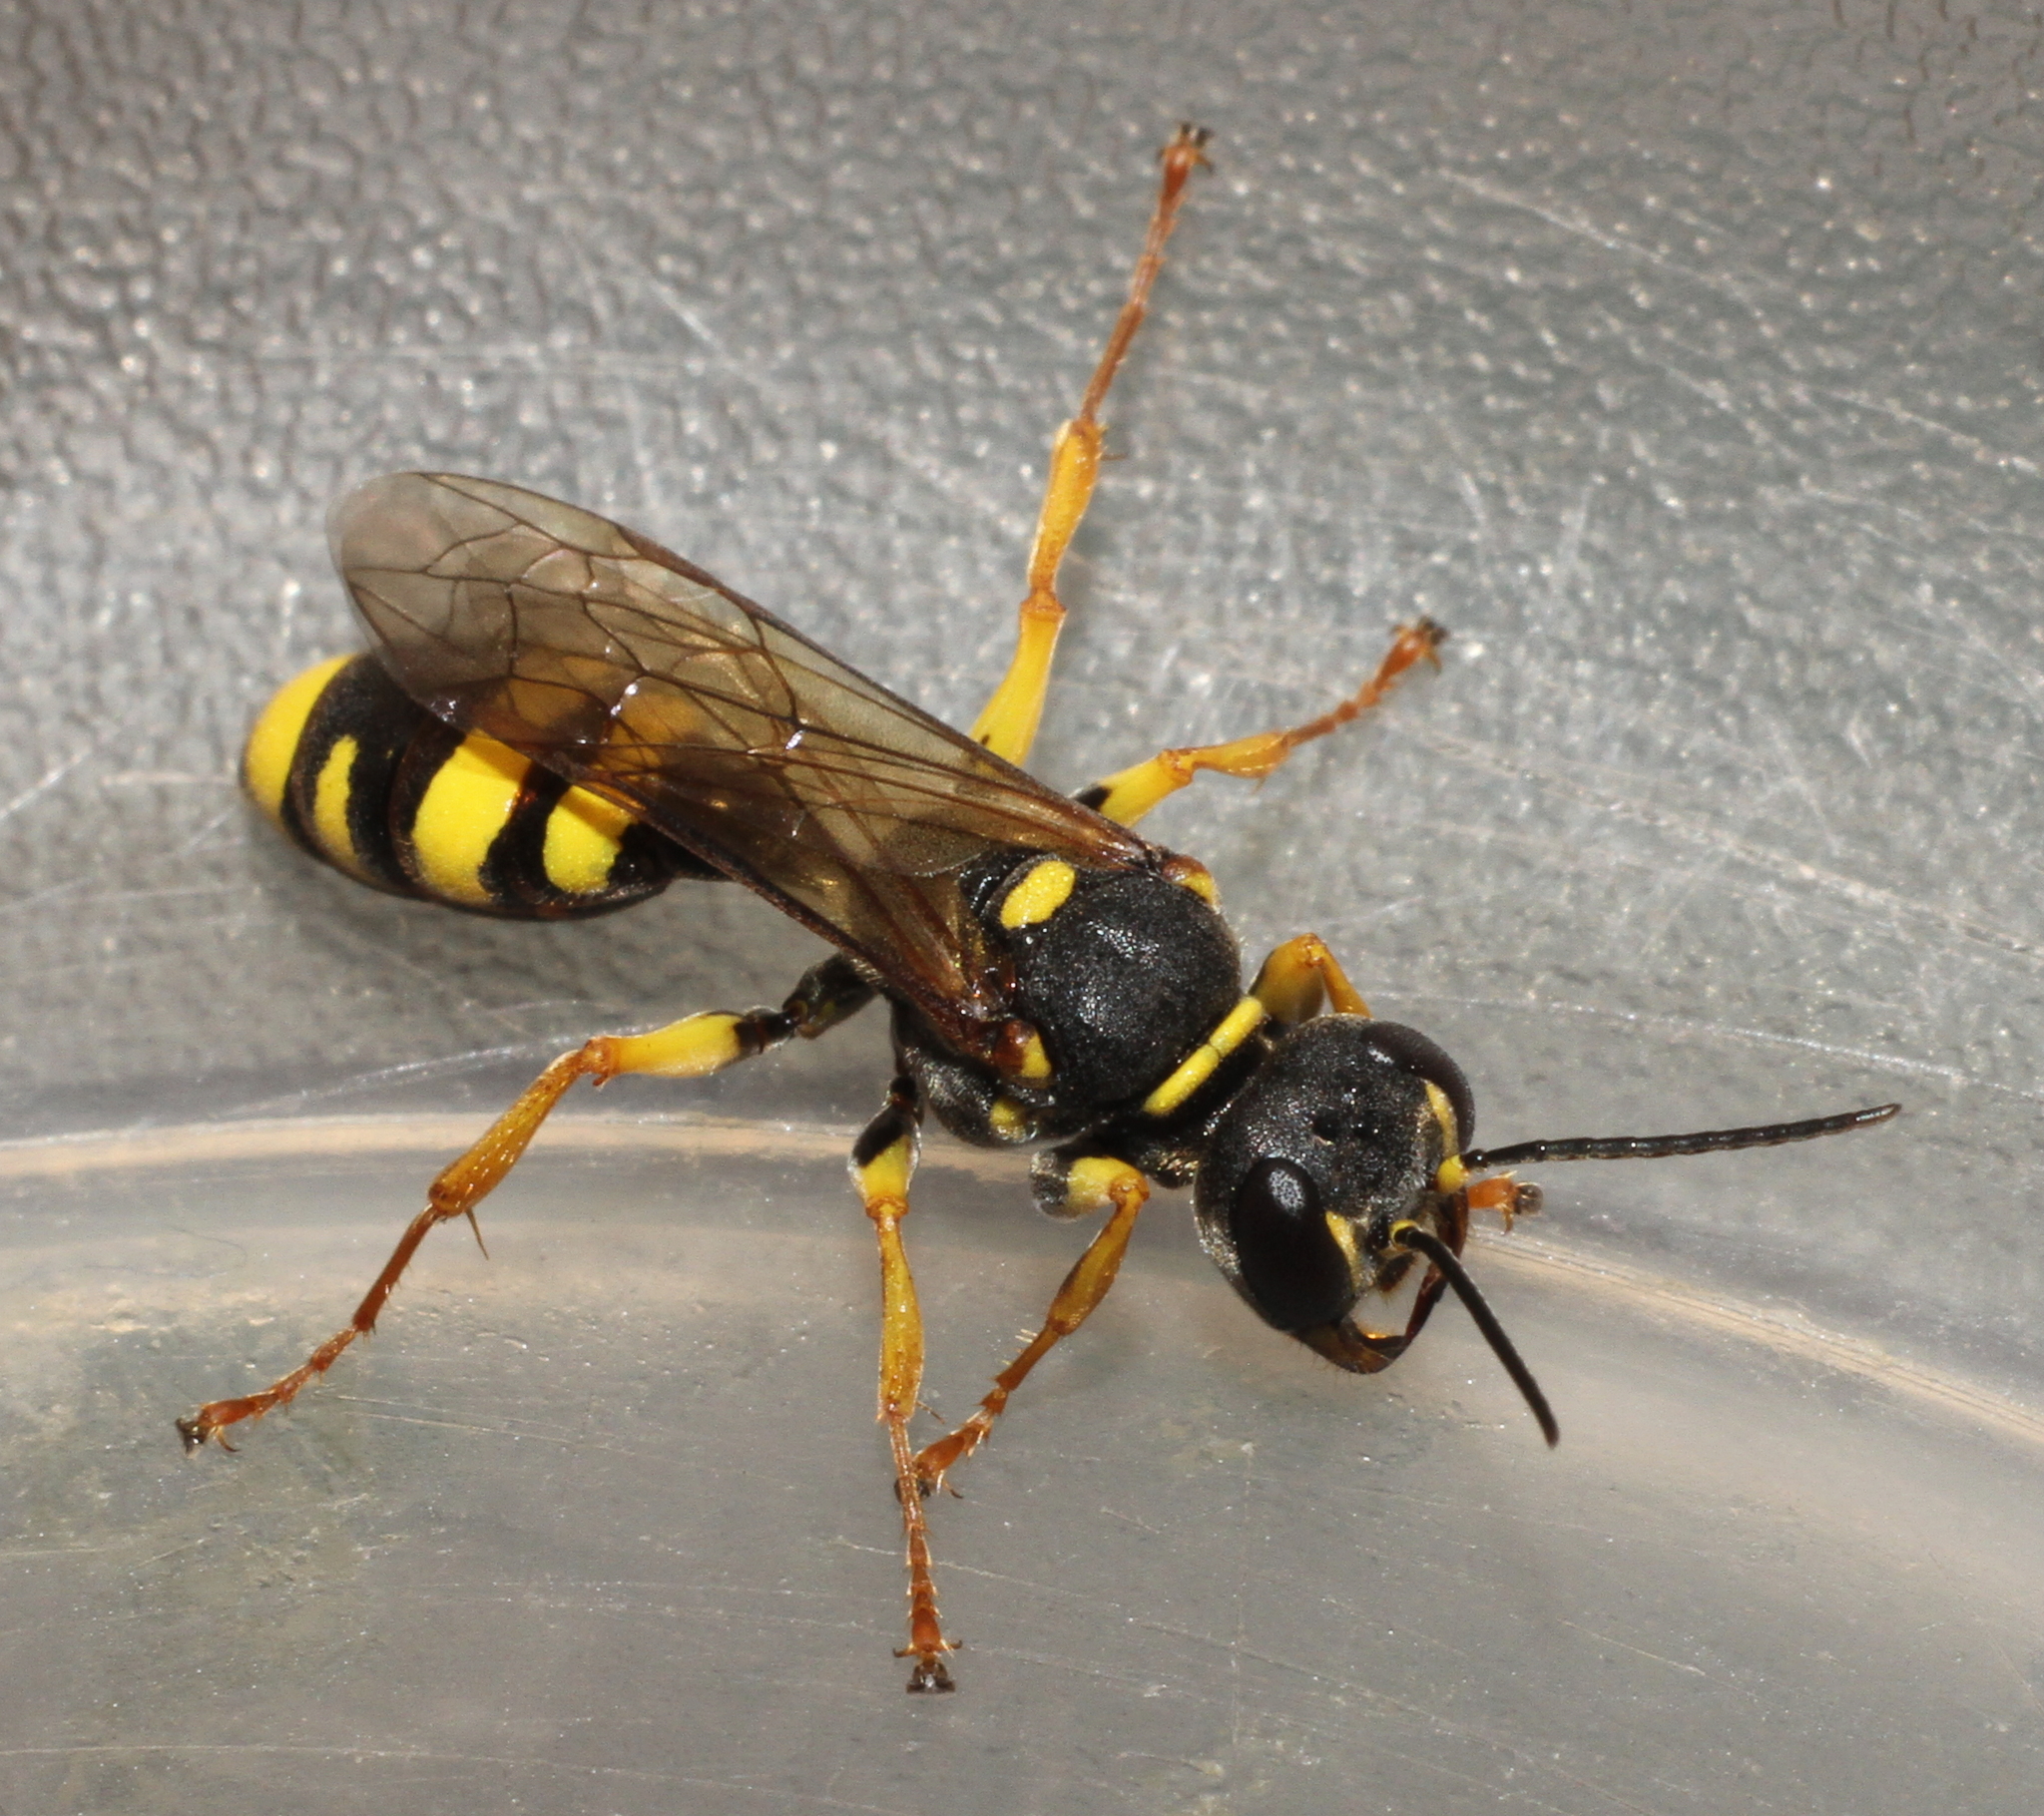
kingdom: Animalia
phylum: Arthropoda
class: Insecta
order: Hymenoptera
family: Crabronidae
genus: Mellinus
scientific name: Mellinus arvensis
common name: Field digger wasp
